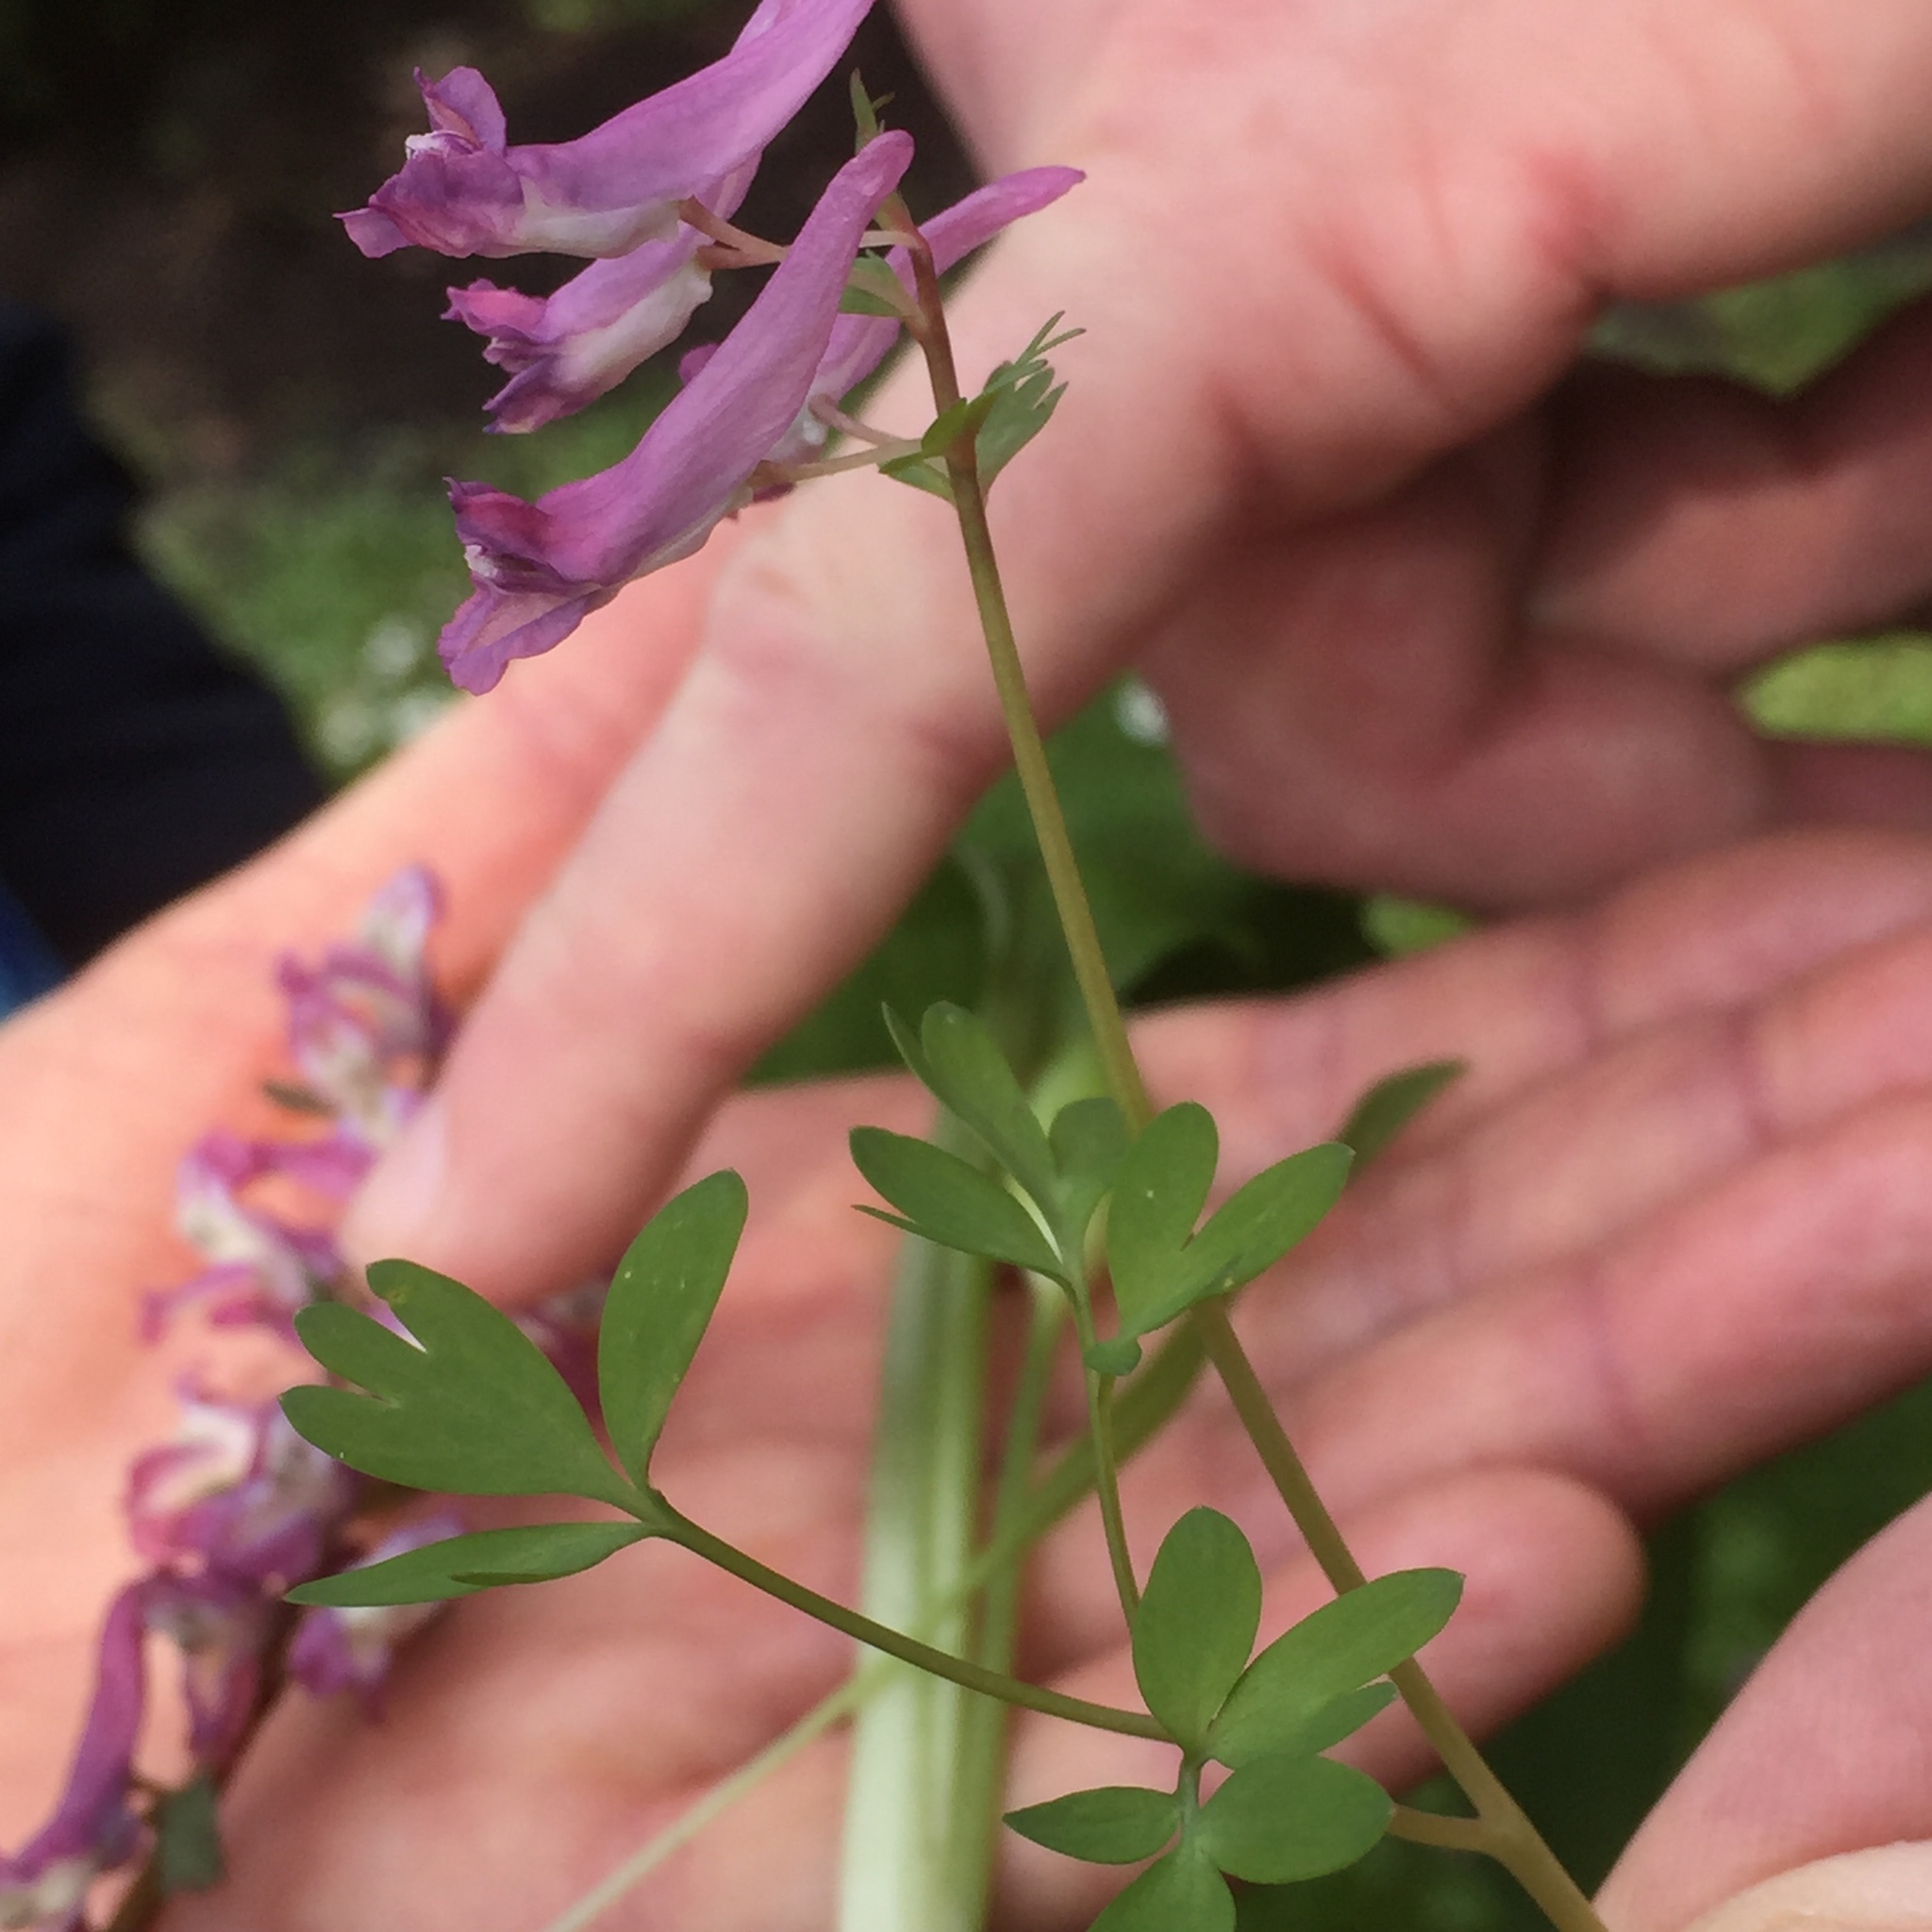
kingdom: Plantae
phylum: Tracheophyta
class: Magnoliopsida
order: Ranunculales
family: Papaveraceae
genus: Corydalis
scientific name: Corydalis solida
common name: Bird-in-a-bush
